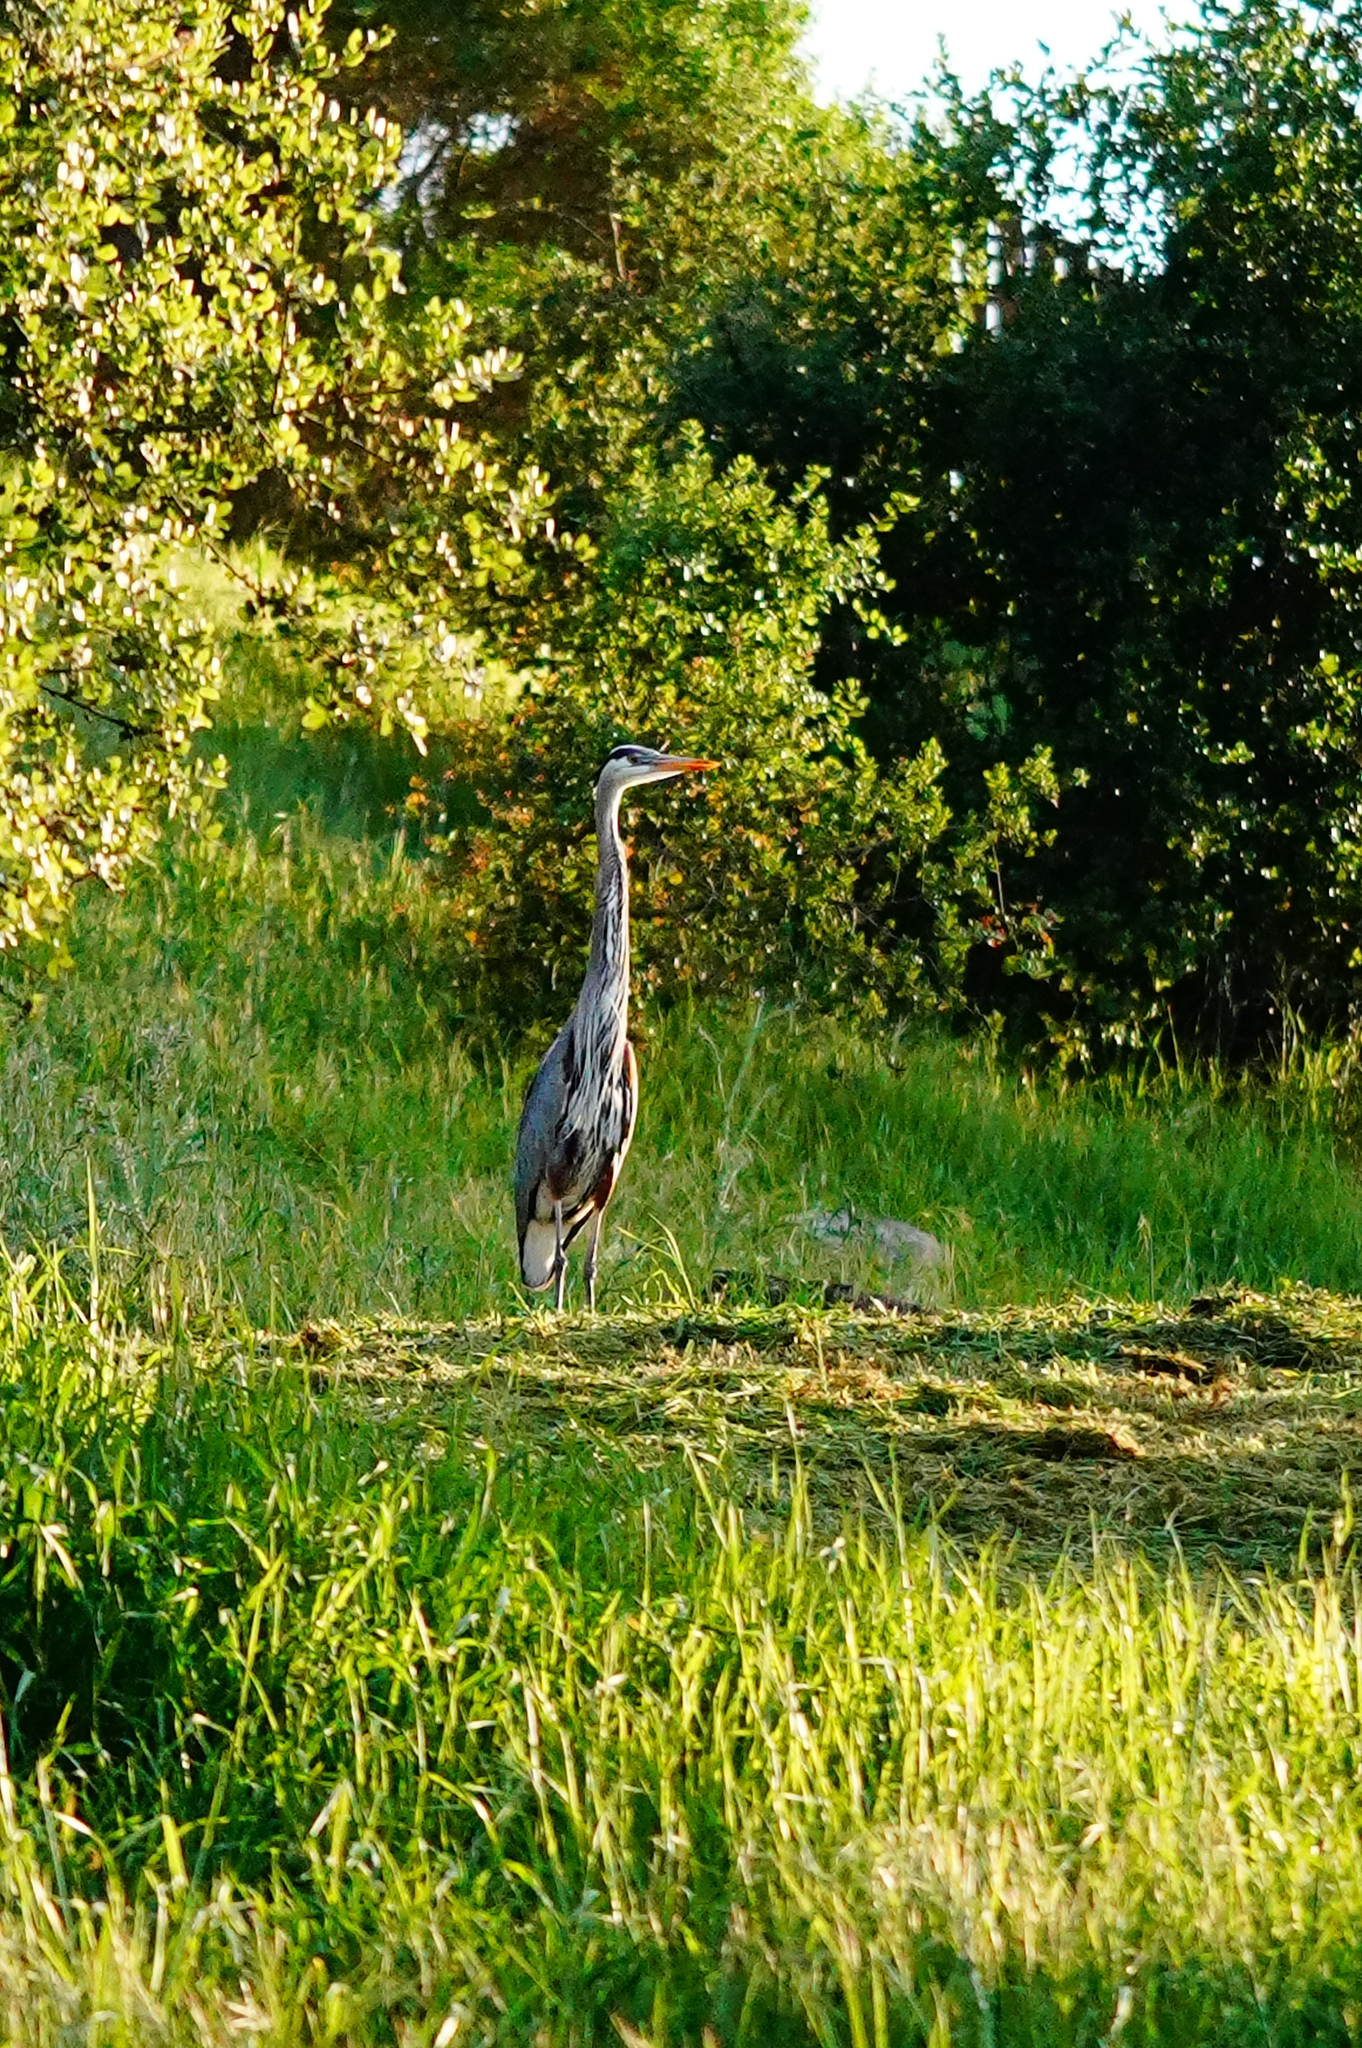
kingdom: Animalia
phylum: Chordata
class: Aves
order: Pelecaniformes
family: Ardeidae
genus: Ardea
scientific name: Ardea herodias
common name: Great blue heron
